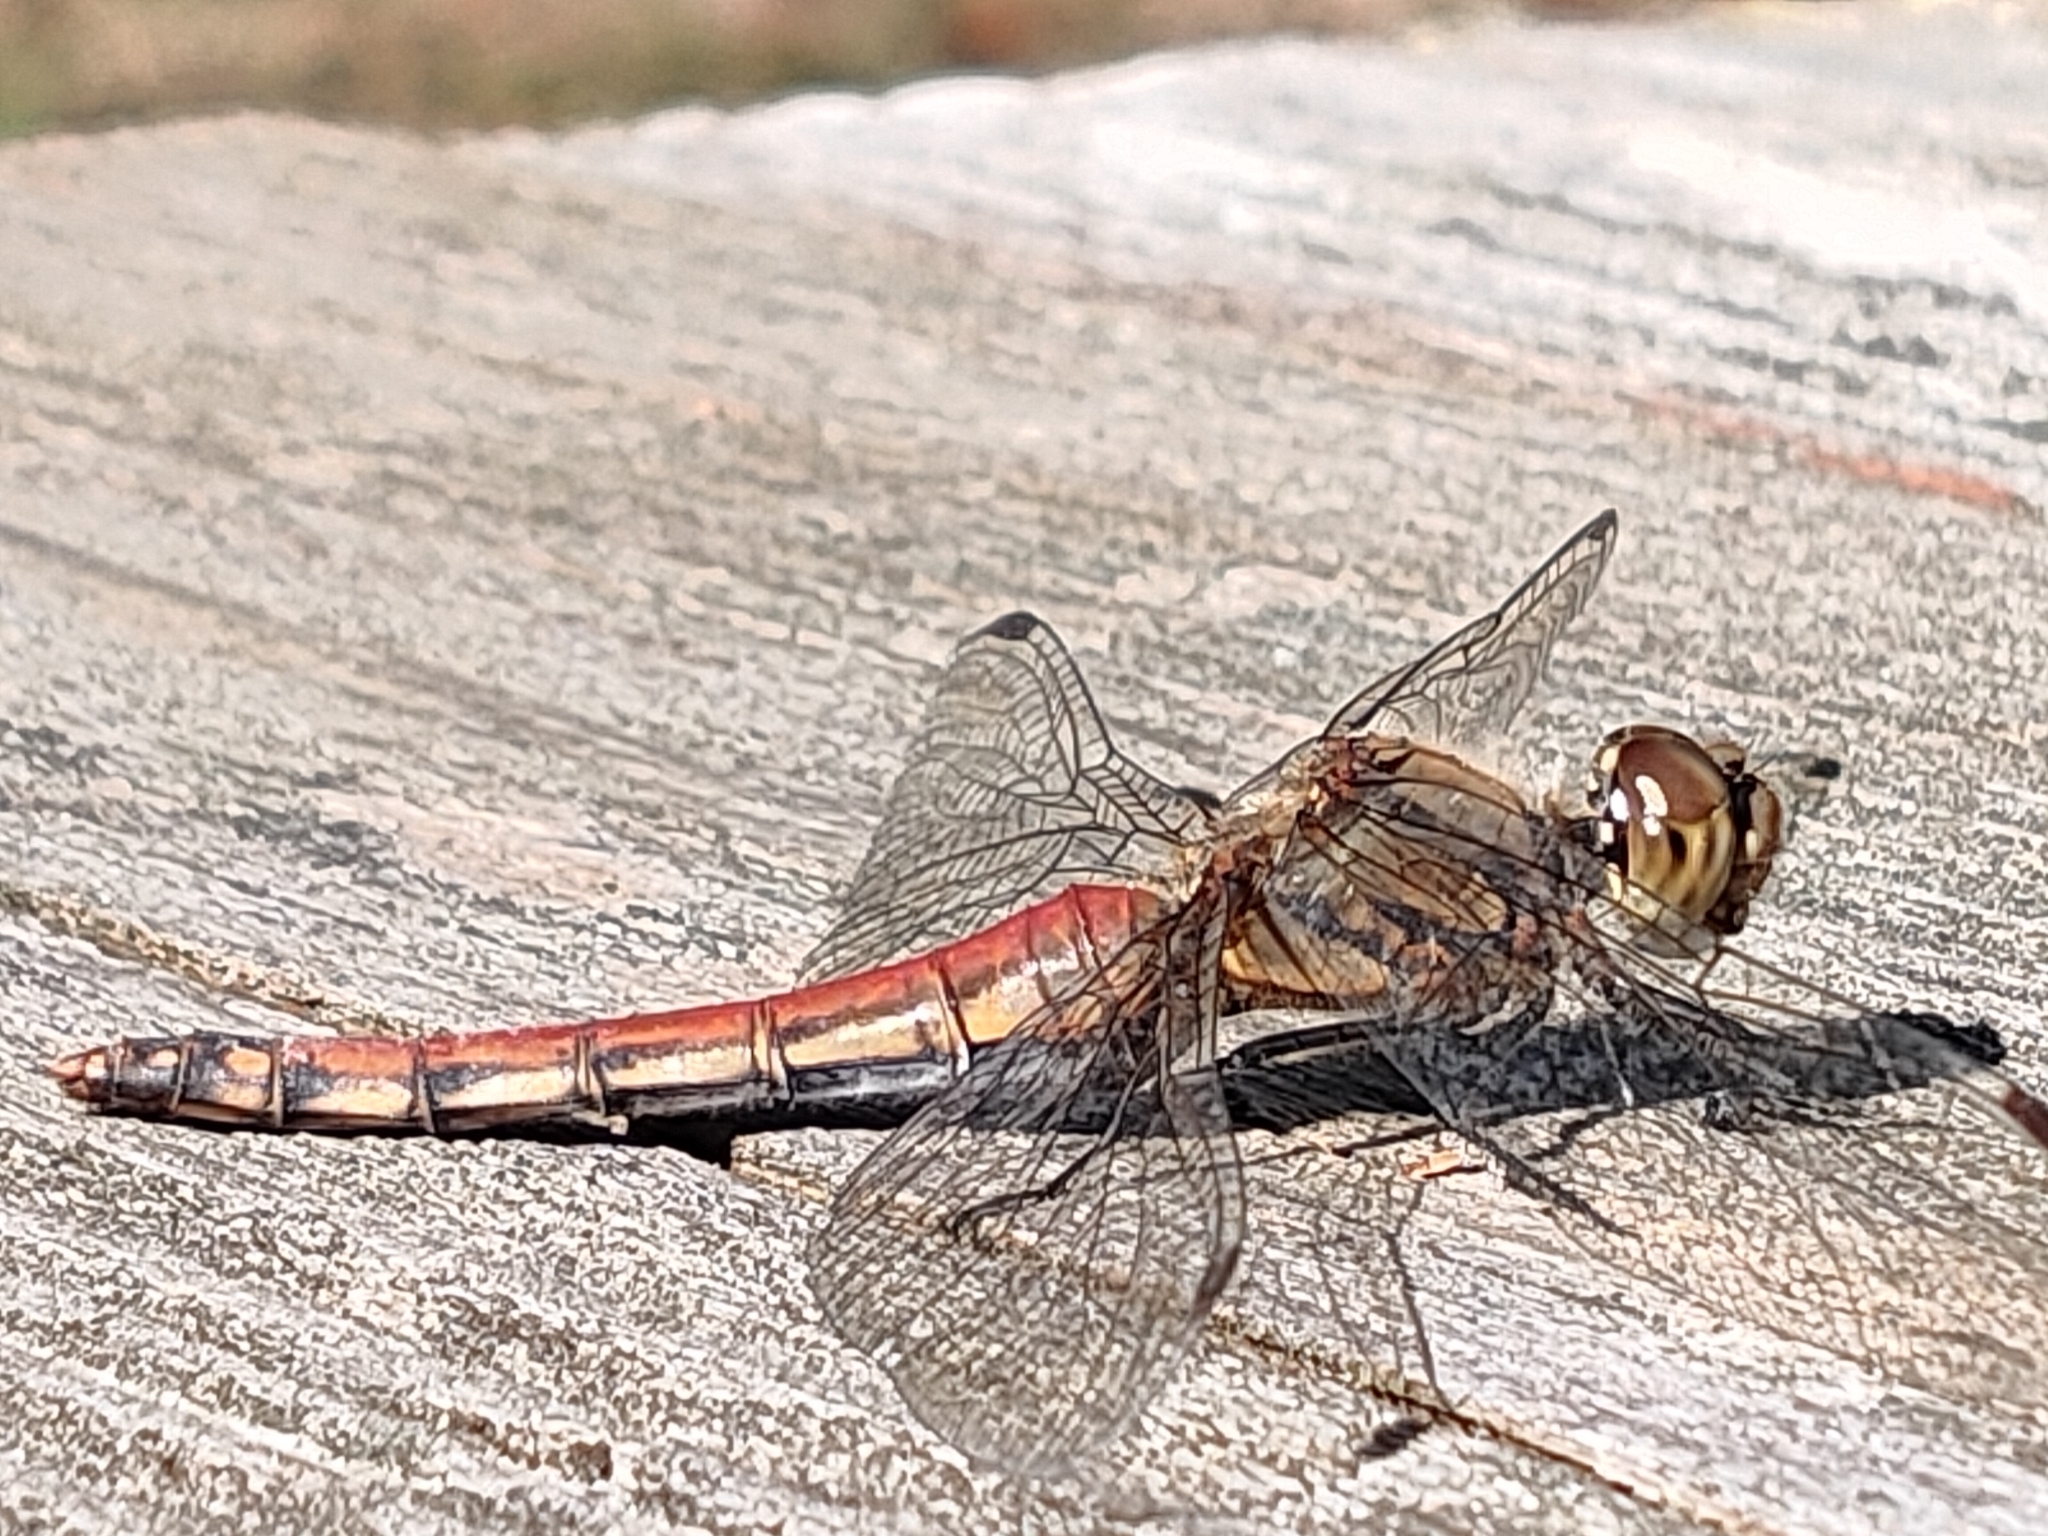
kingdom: Animalia
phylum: Arthropoda
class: Insecta
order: Odonata
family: Libellulidae
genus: Sympetrum
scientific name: Sympetrum frequens
